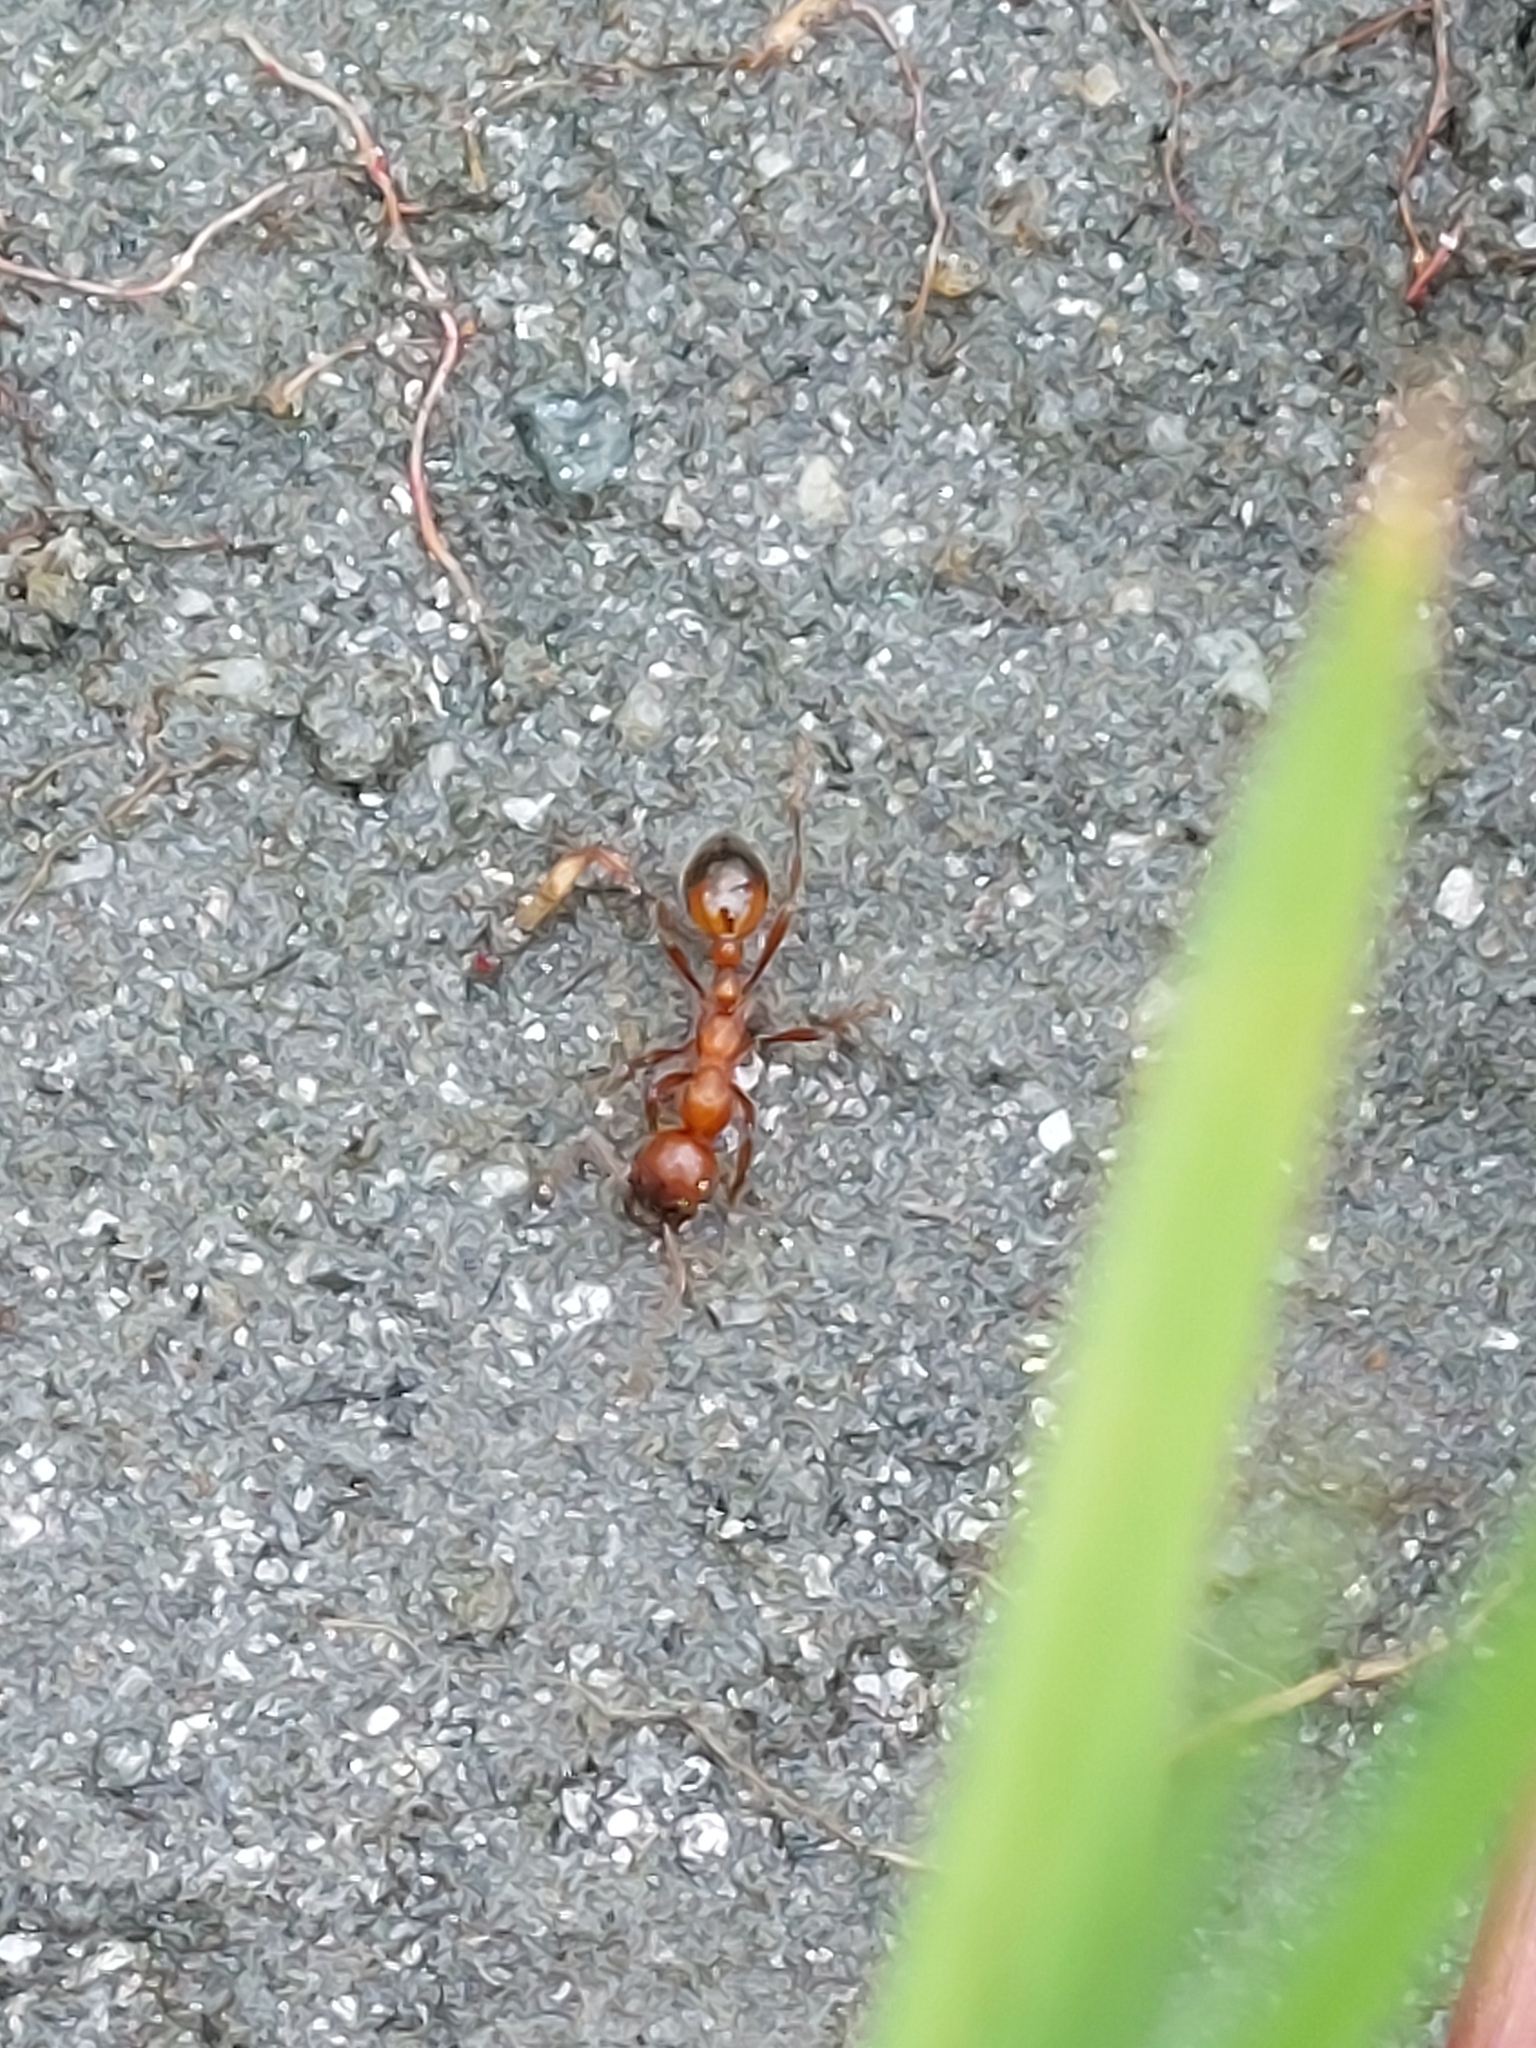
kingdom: Animalia
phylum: Arthropoda
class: Insecta
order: Hymenoptera
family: Formicidae
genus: Manica
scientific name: Manica rubida
